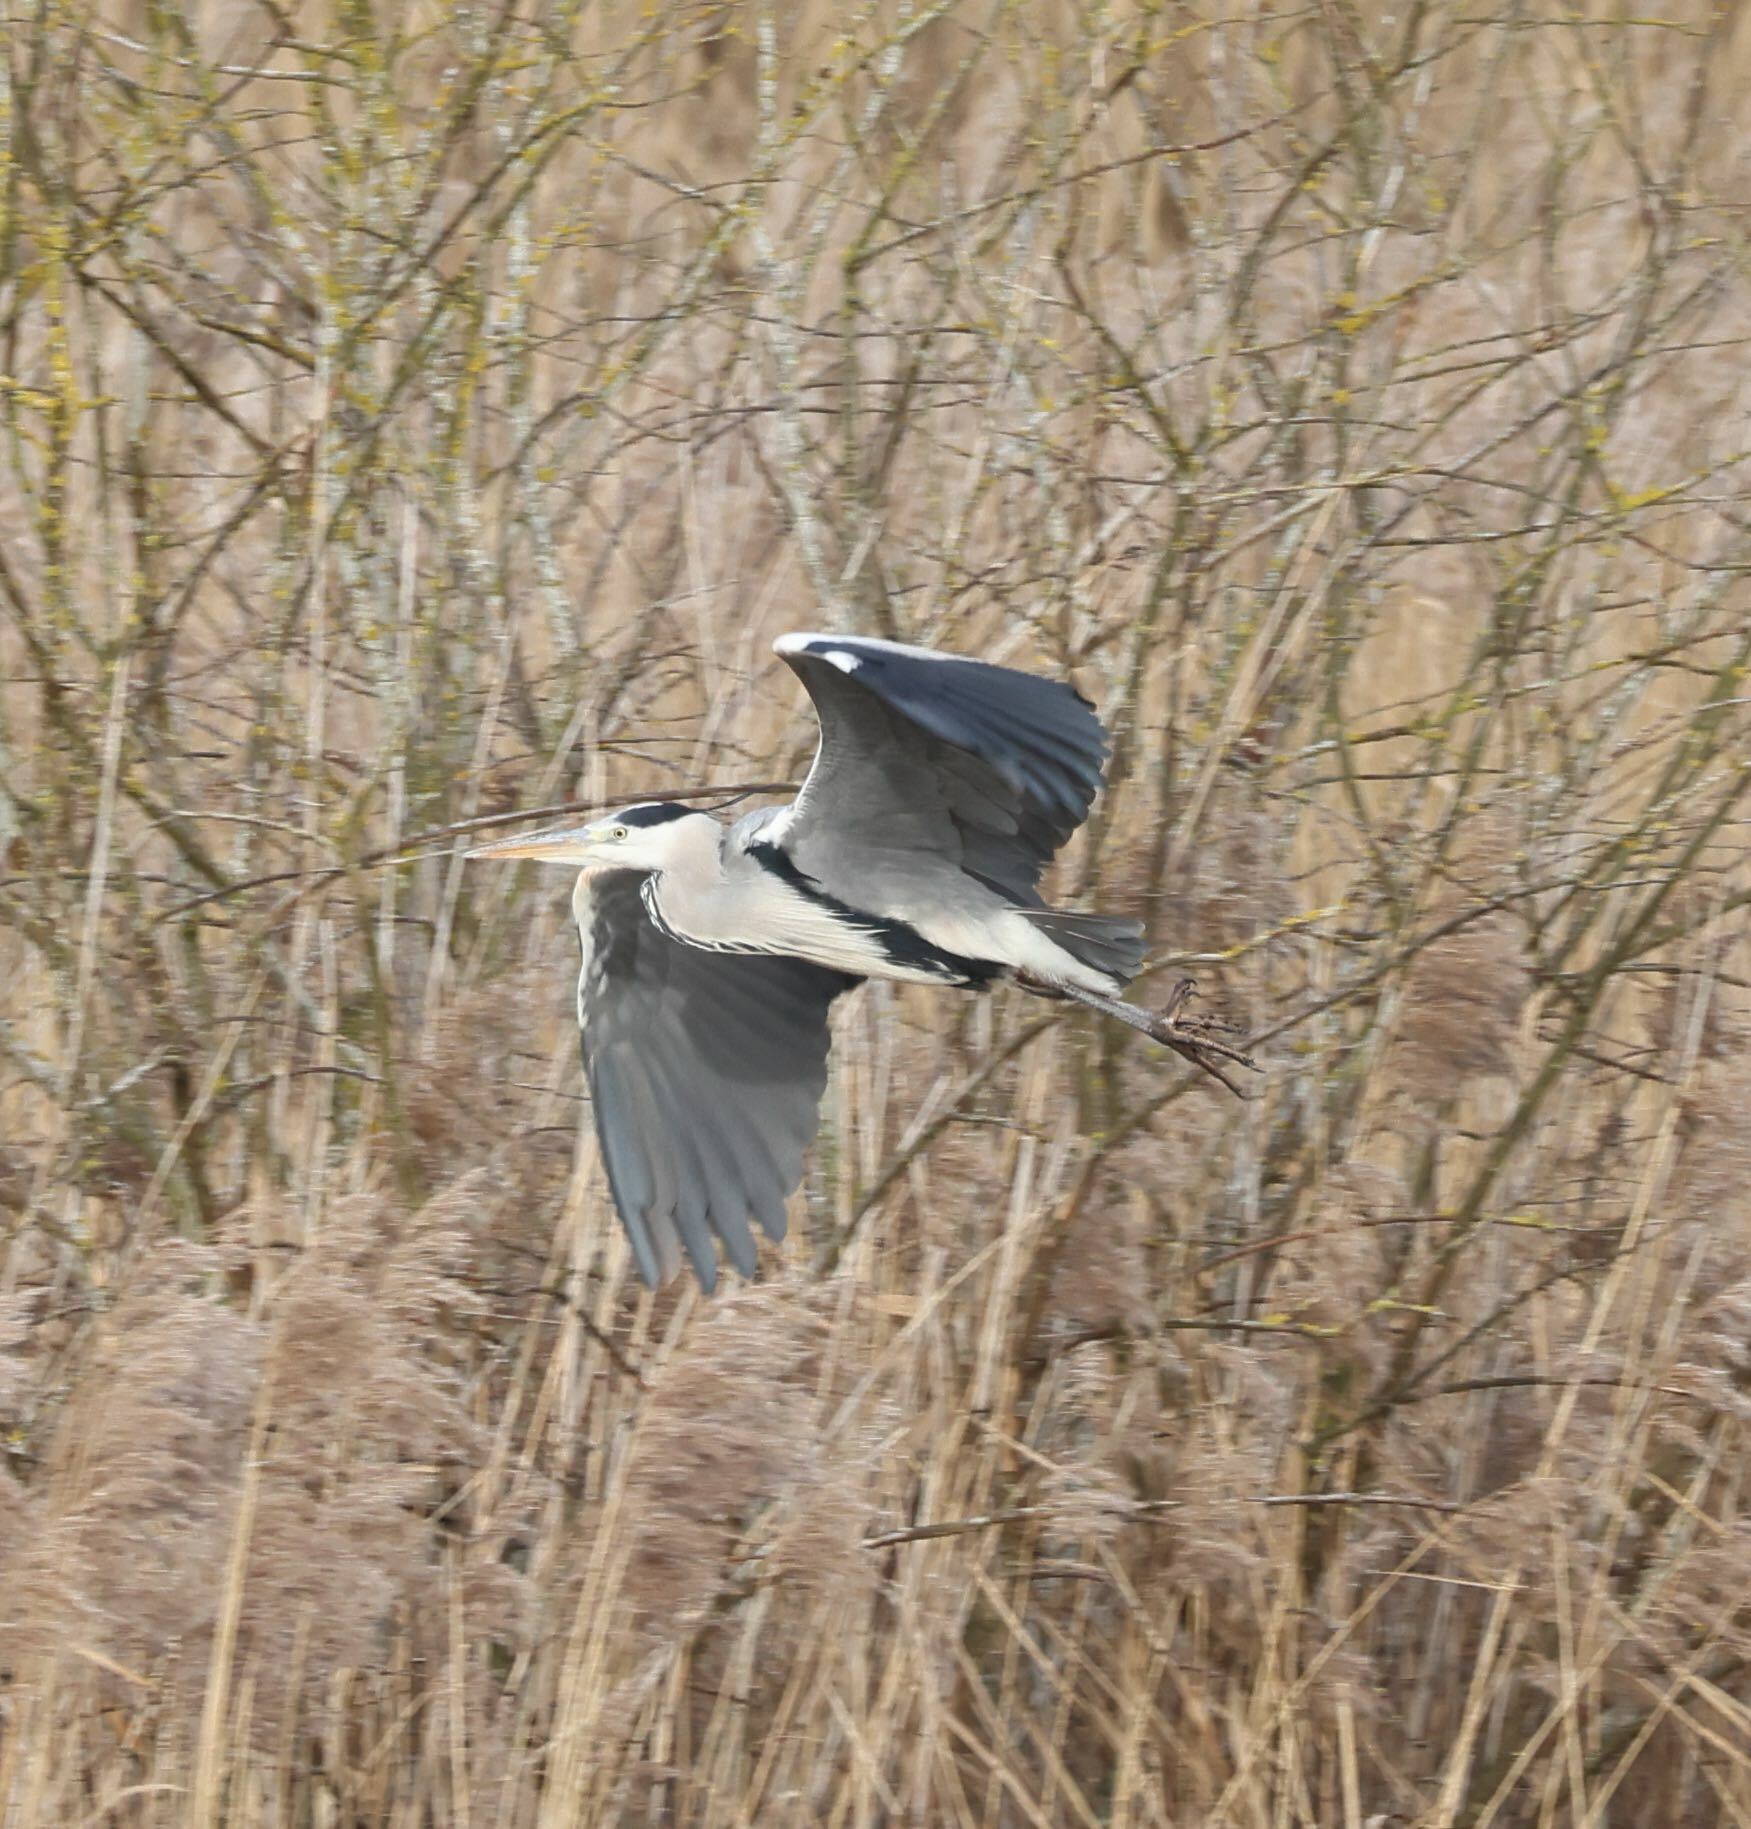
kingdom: Animalia
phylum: Chordata
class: Aves
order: Pelecaniformes
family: Ardeidae
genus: Ardea
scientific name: Ardea cinerea
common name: Grey heron
